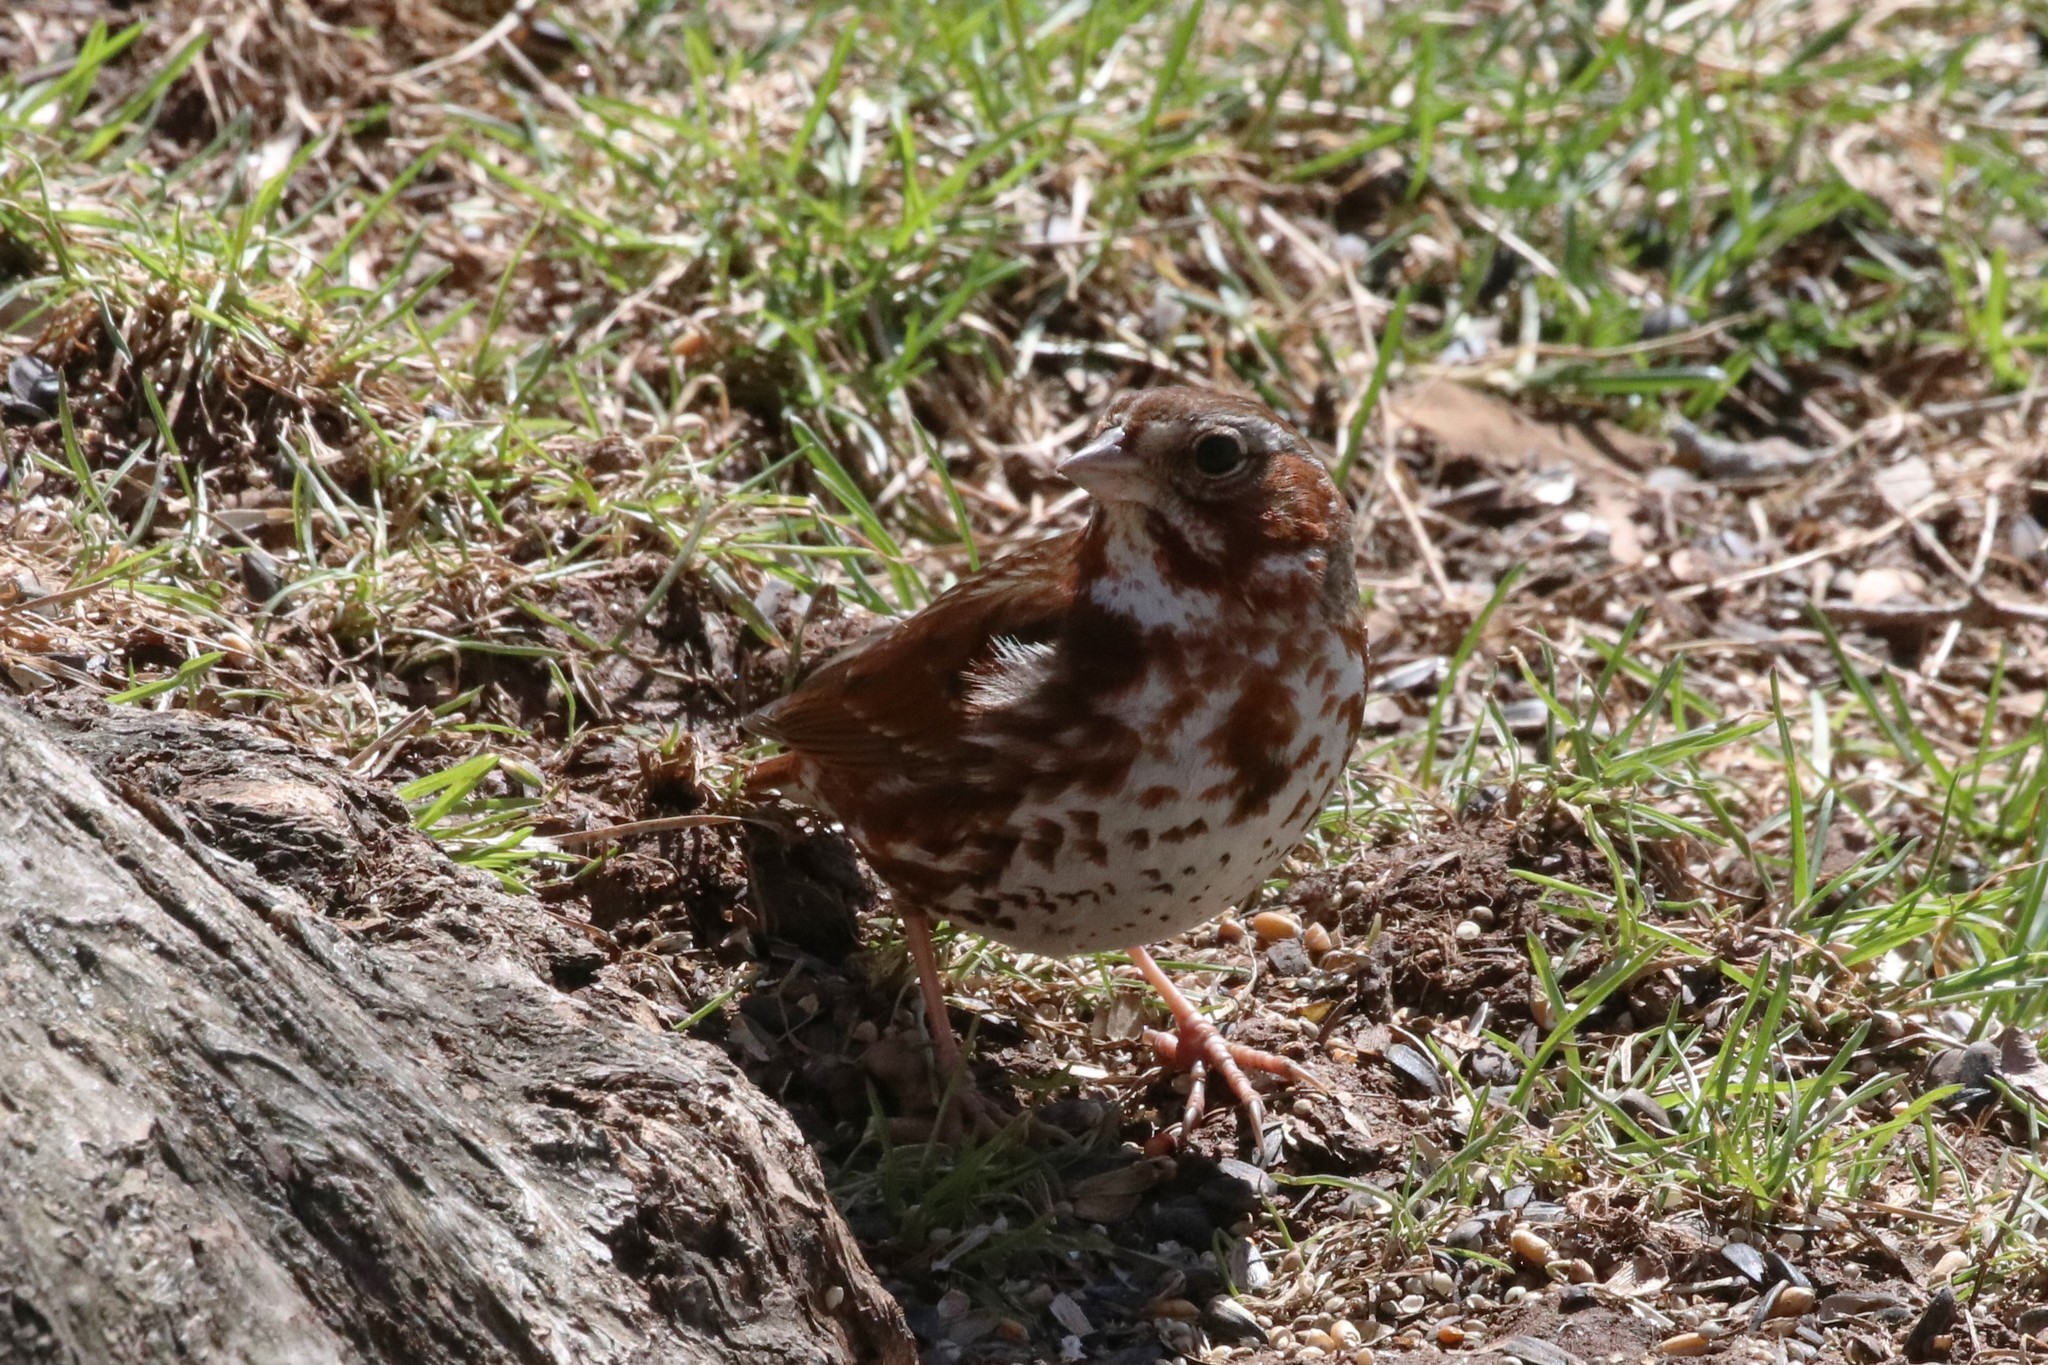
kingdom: Animalia
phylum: Chordata
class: Aves
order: Passeriformes
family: Passerellidae
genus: Passerella
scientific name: Passerella iliaca
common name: Fox sparrow
